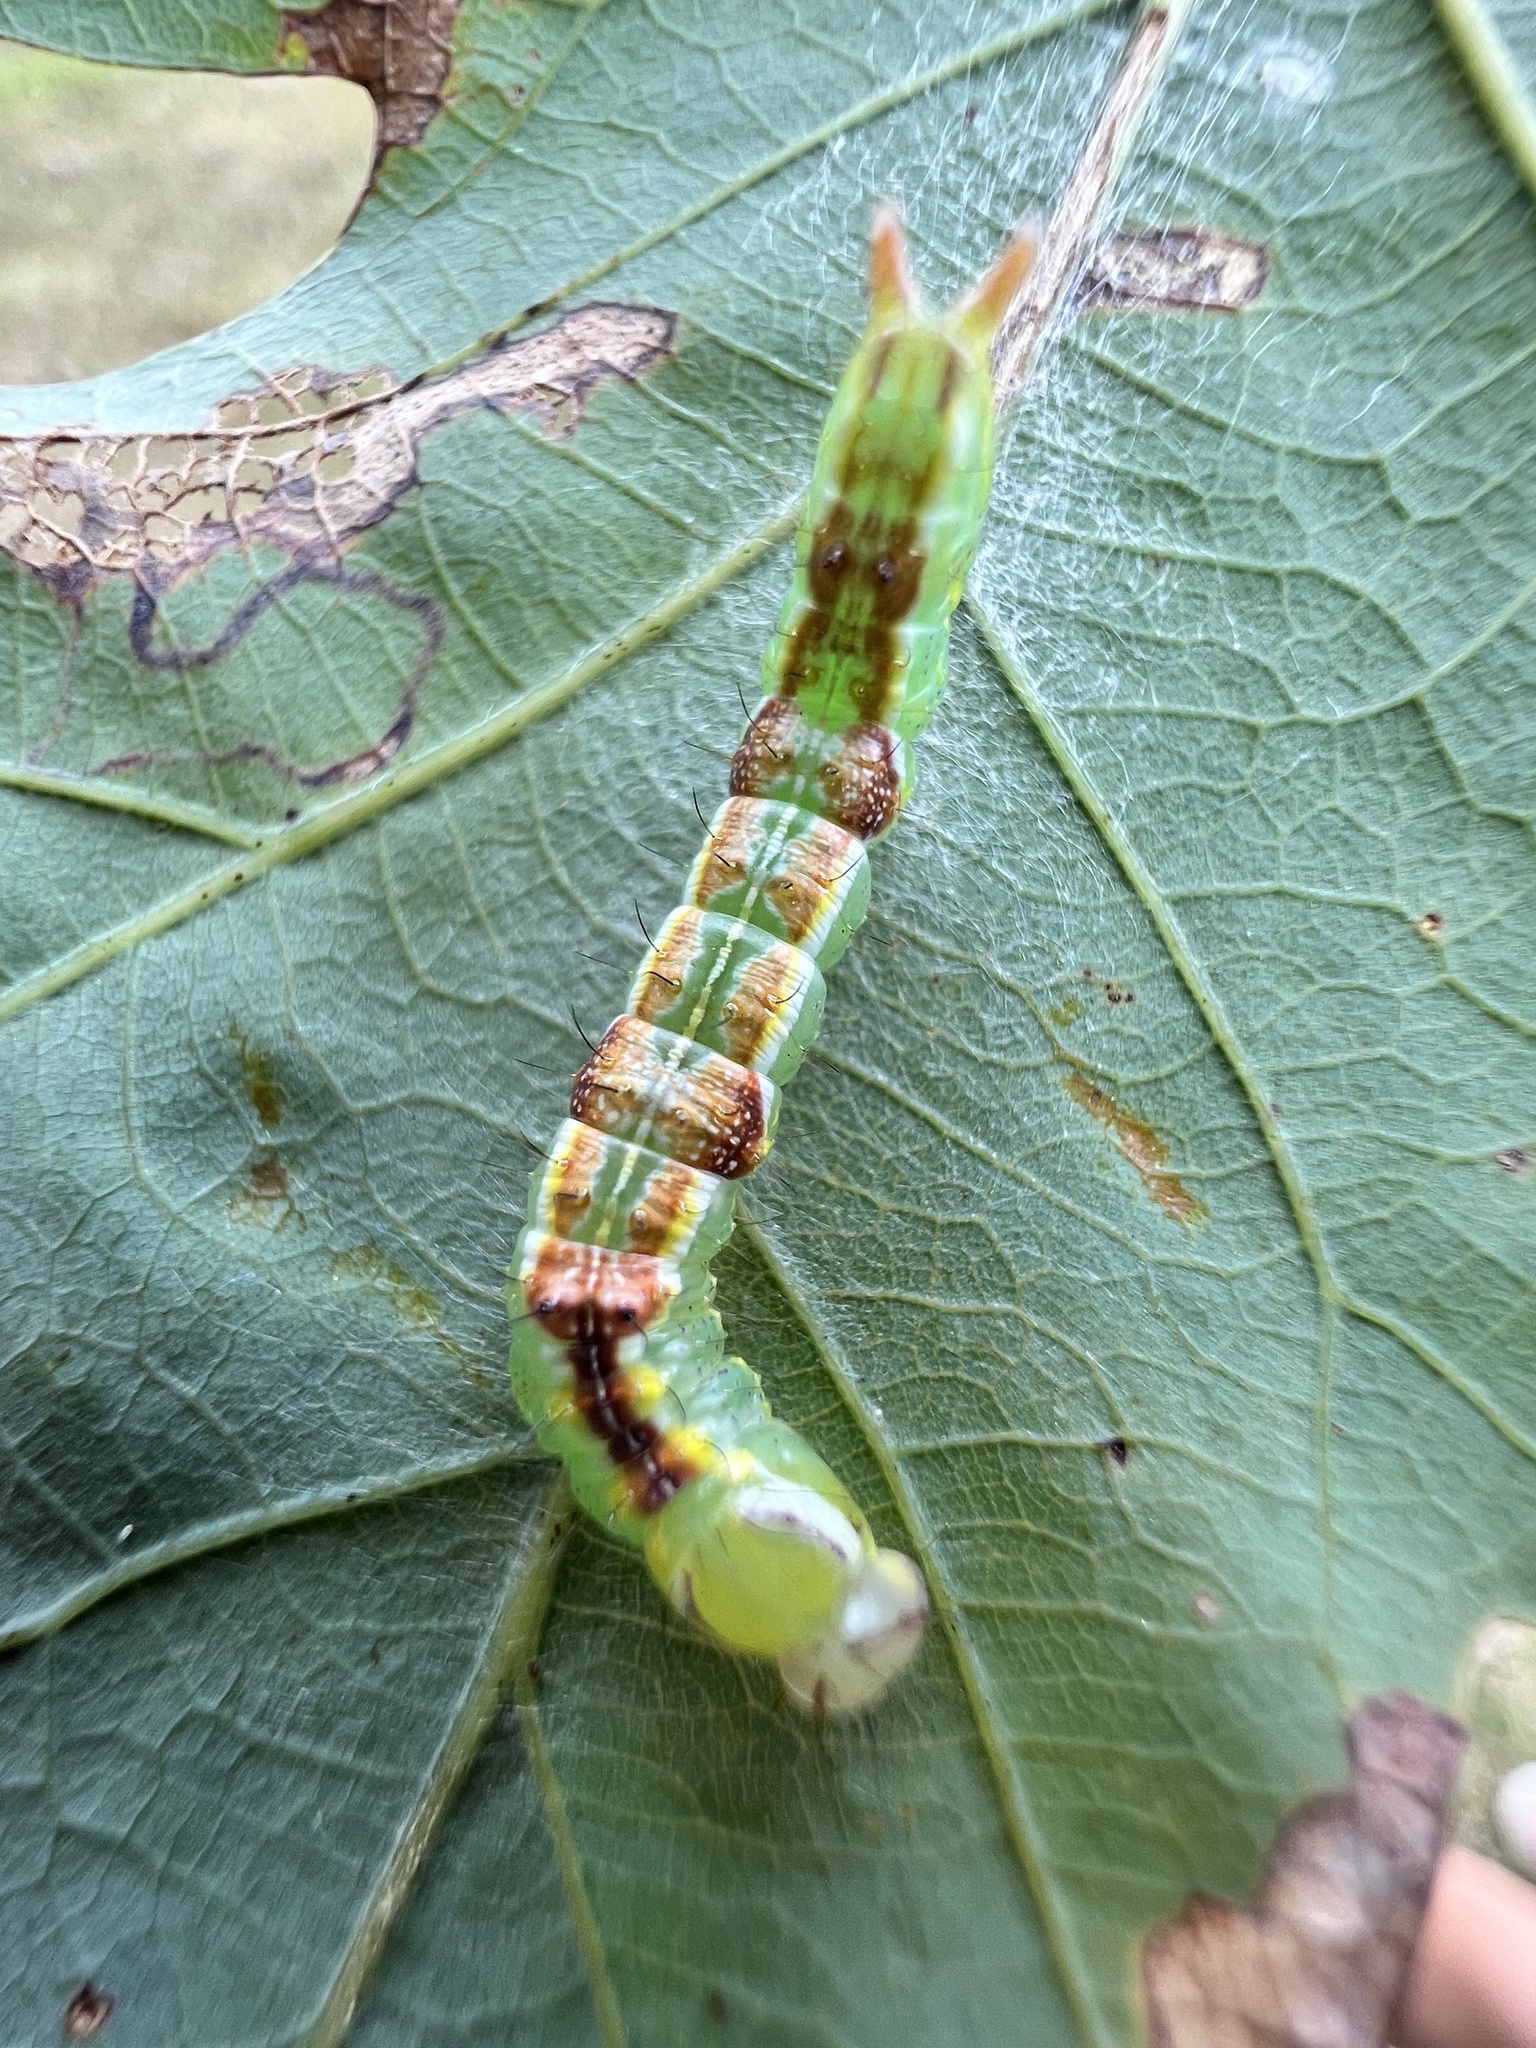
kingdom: Animalia
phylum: Arthropoda
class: Insecta
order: Lepidoptera
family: Notodontidae
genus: Lochmaeus
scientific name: Lochmaeus manteo
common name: Variable oakleaf caterpillar moth
